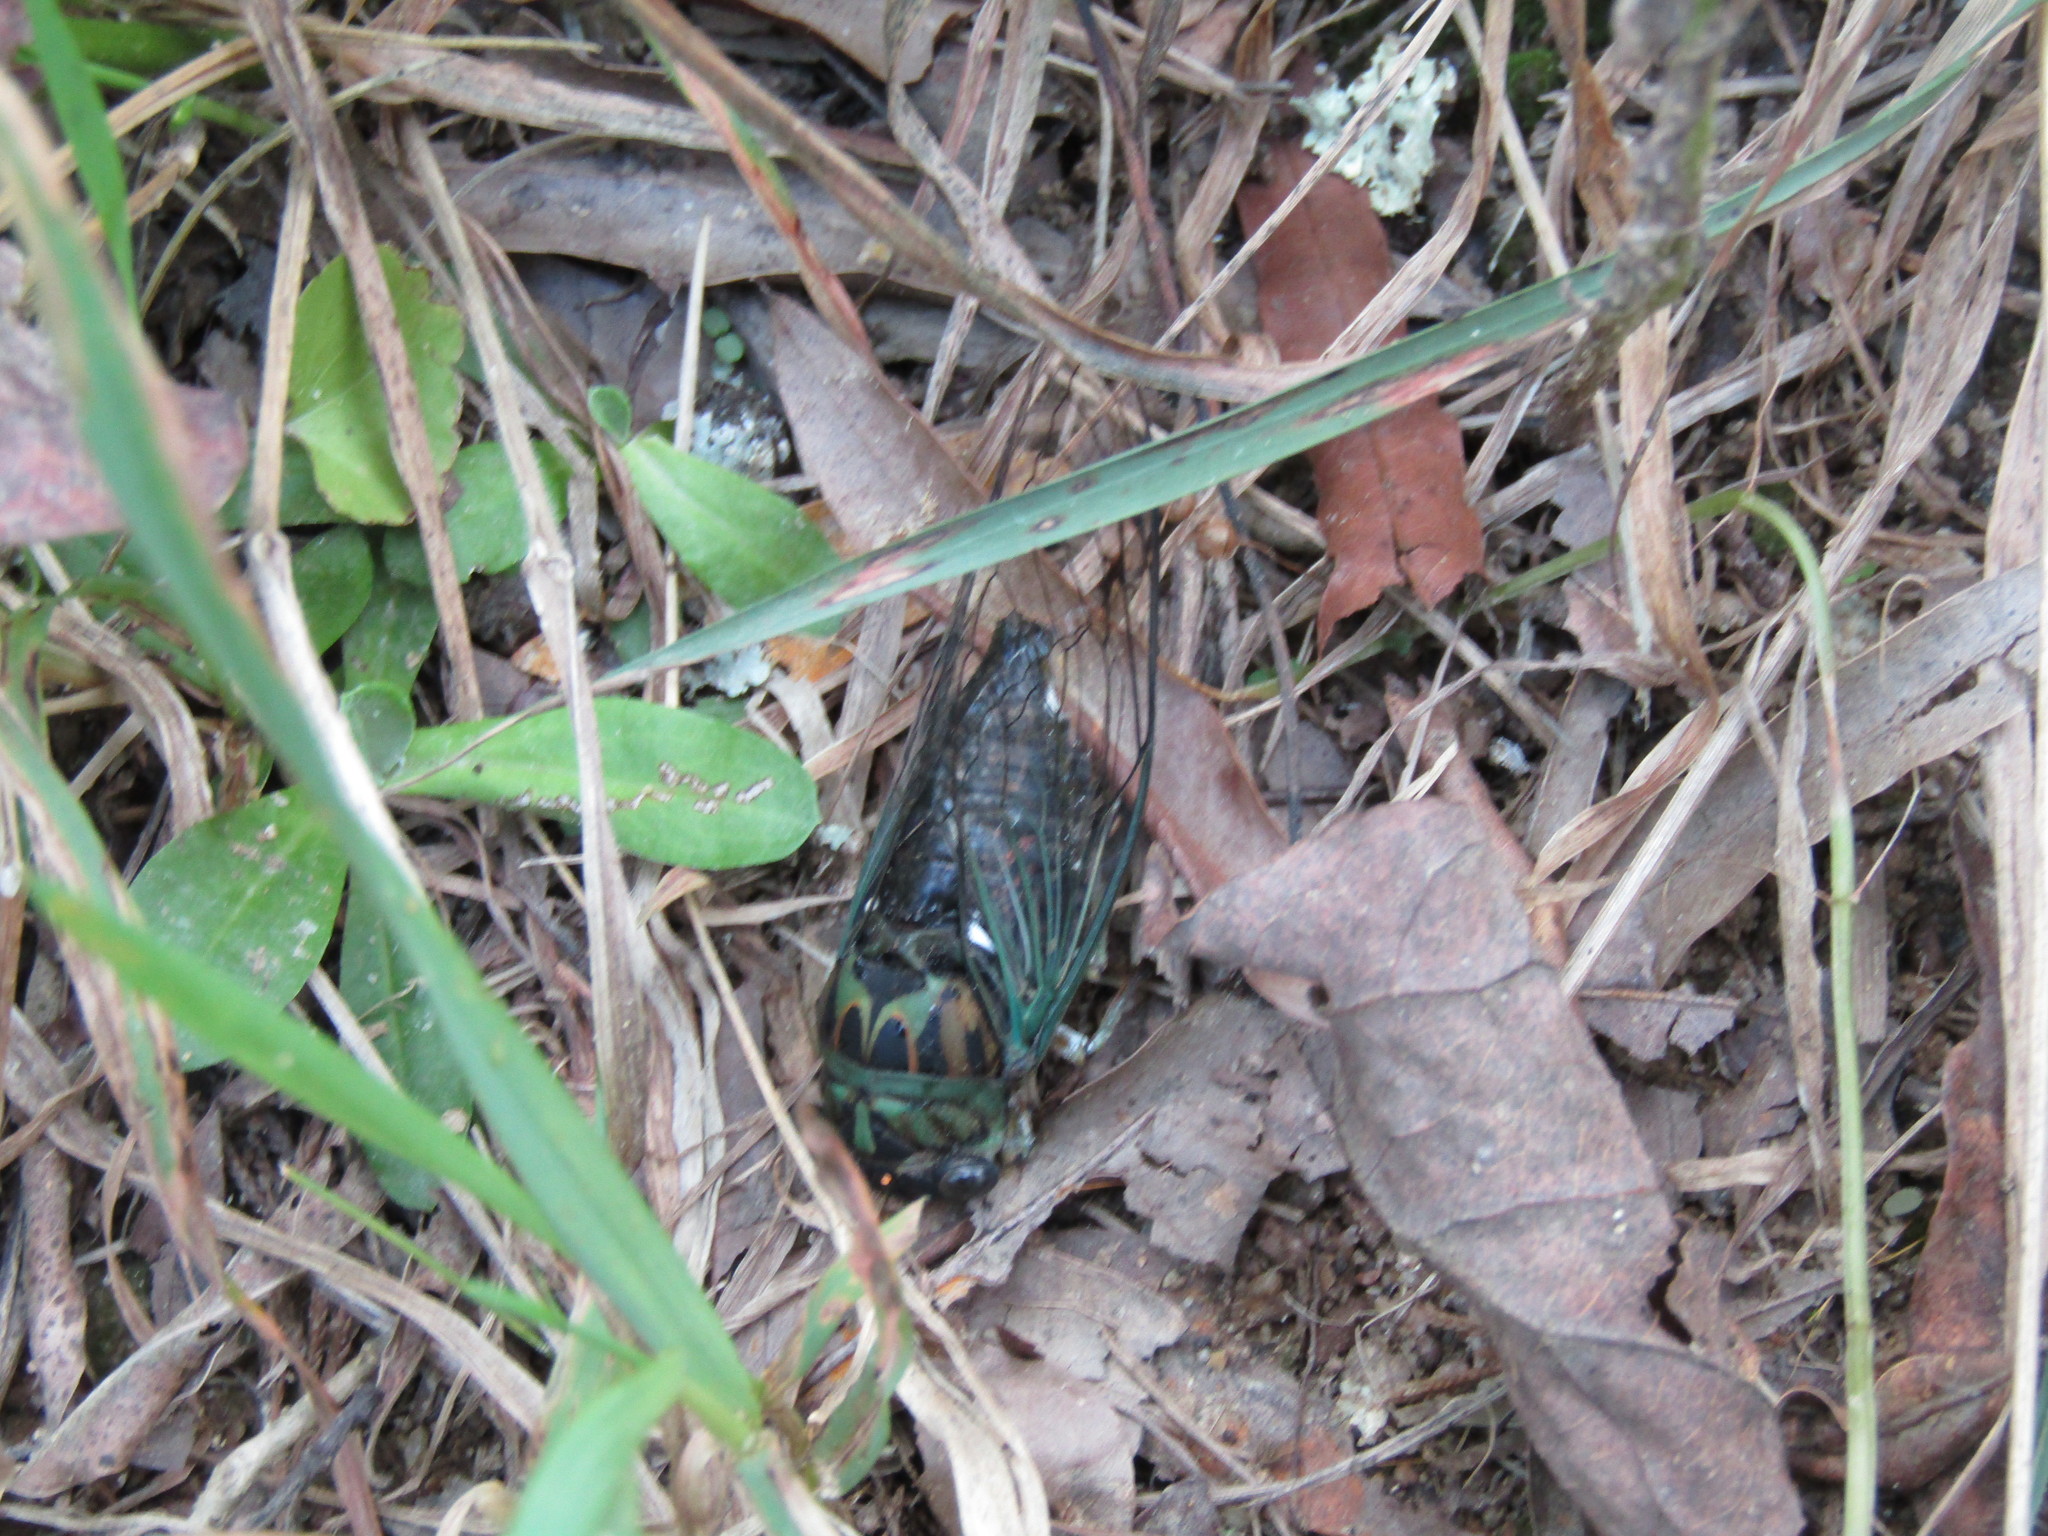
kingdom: Animalia
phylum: Arthropoda
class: Insecta
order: Hemiptera
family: Cicadidae
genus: Neotibicen
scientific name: Neotibicen linnei
